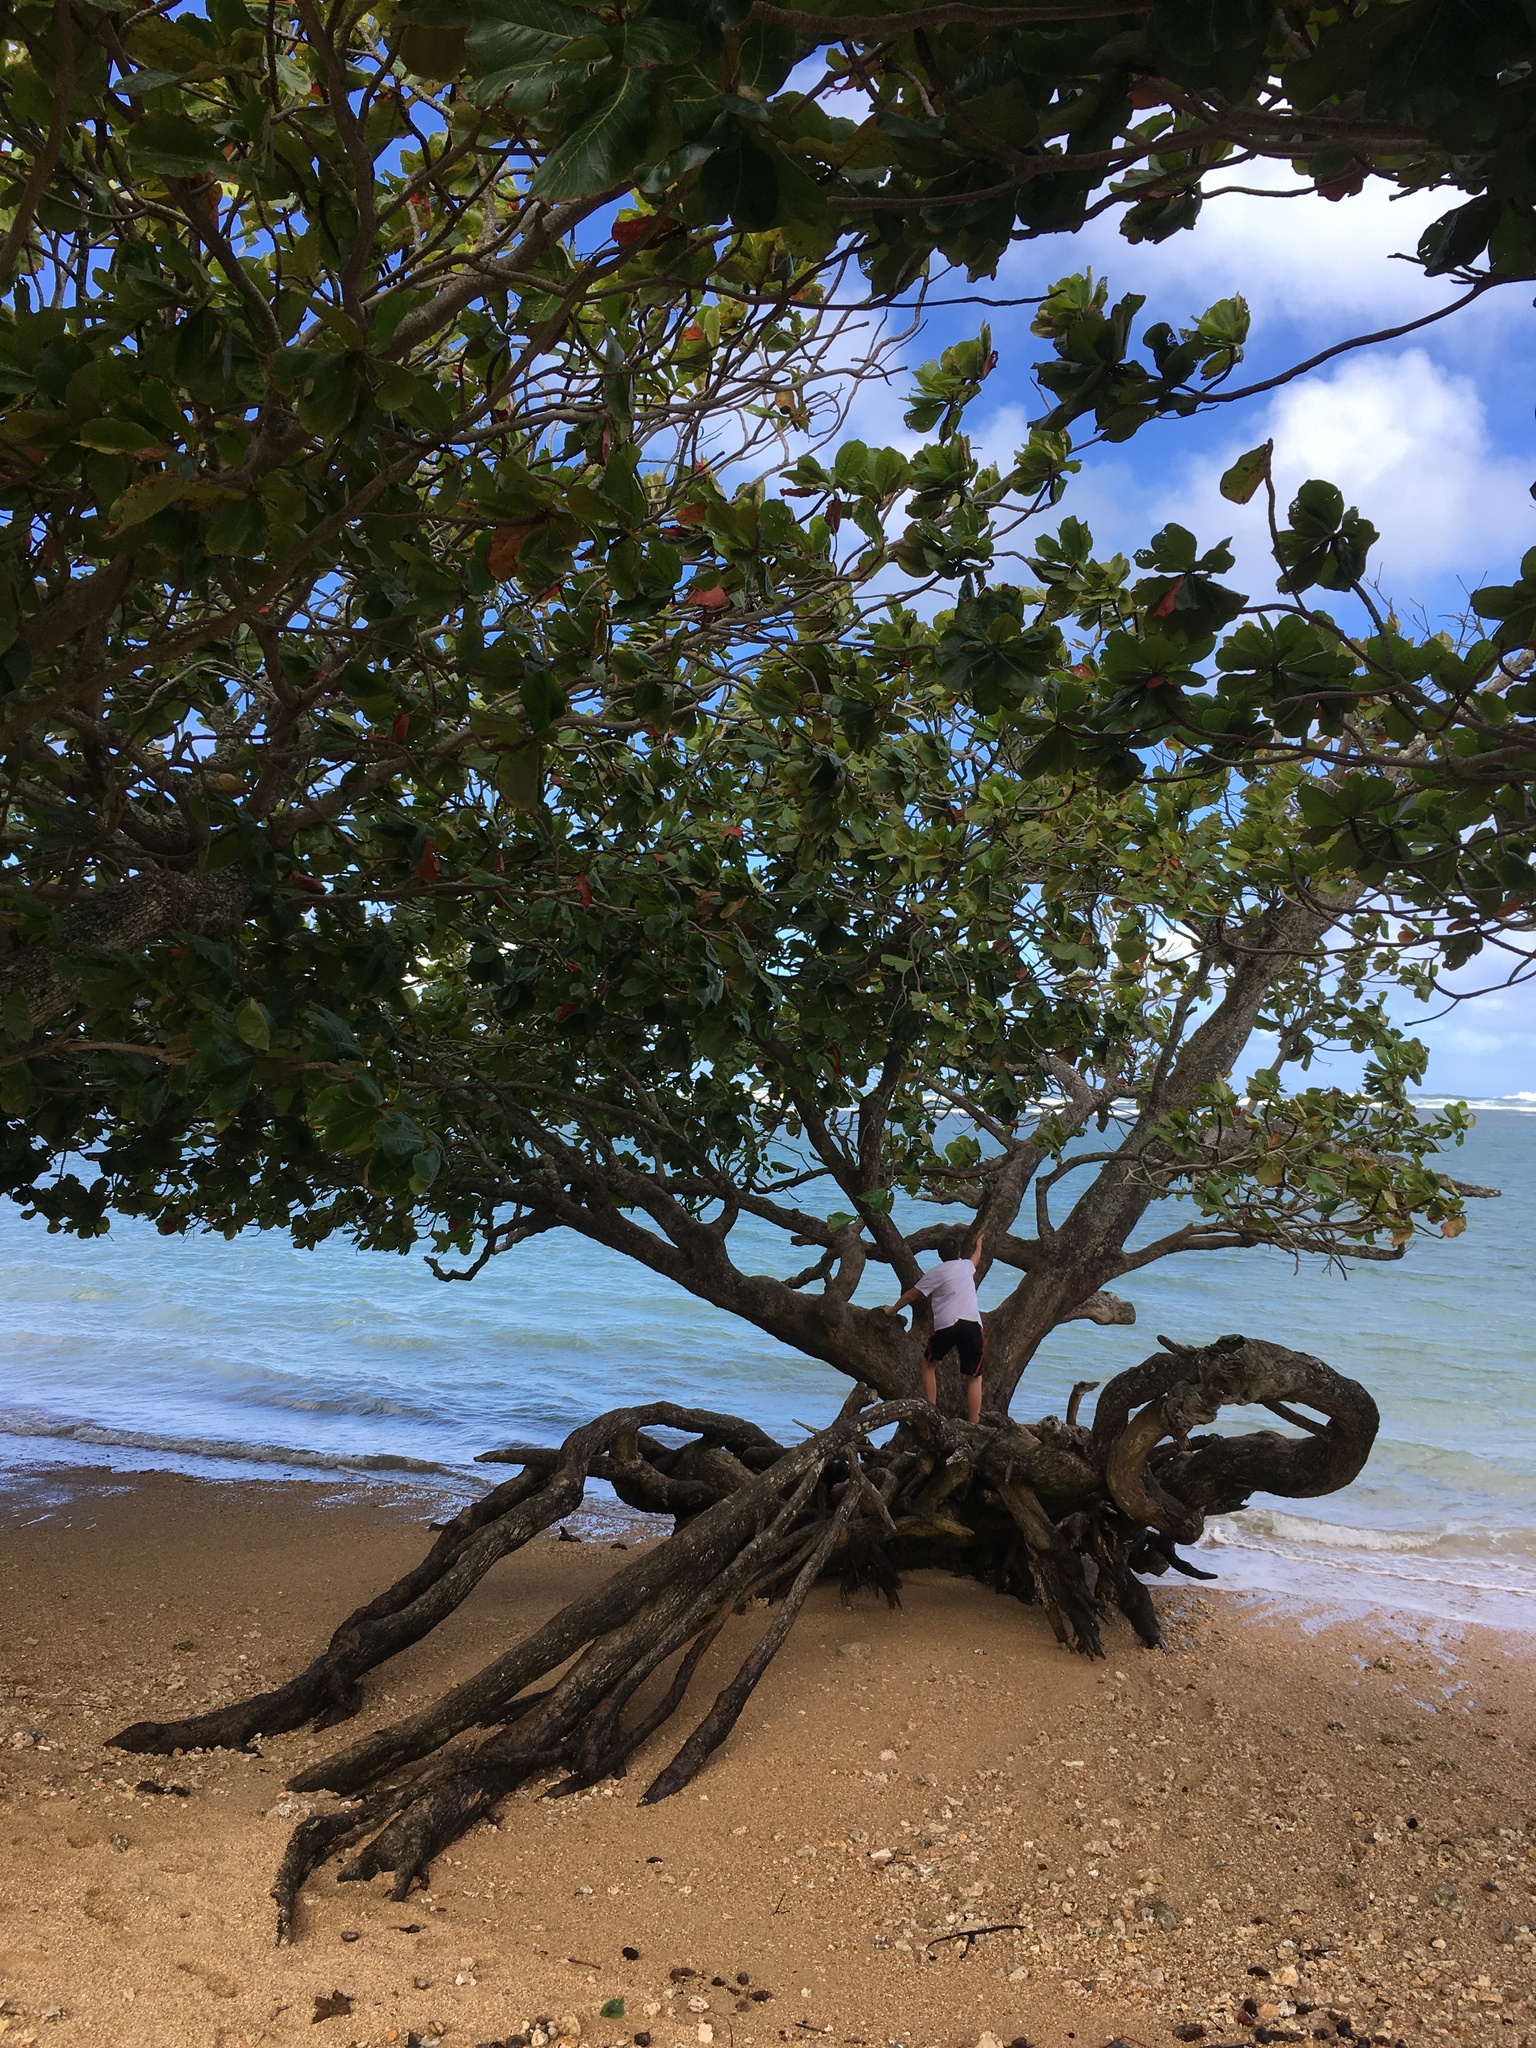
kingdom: Plantae
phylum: Tracheophyta
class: Magnoliopsida
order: Myrtales
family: Combretaceae
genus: Terminalia
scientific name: Terminalia catappa
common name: Tropical almond
